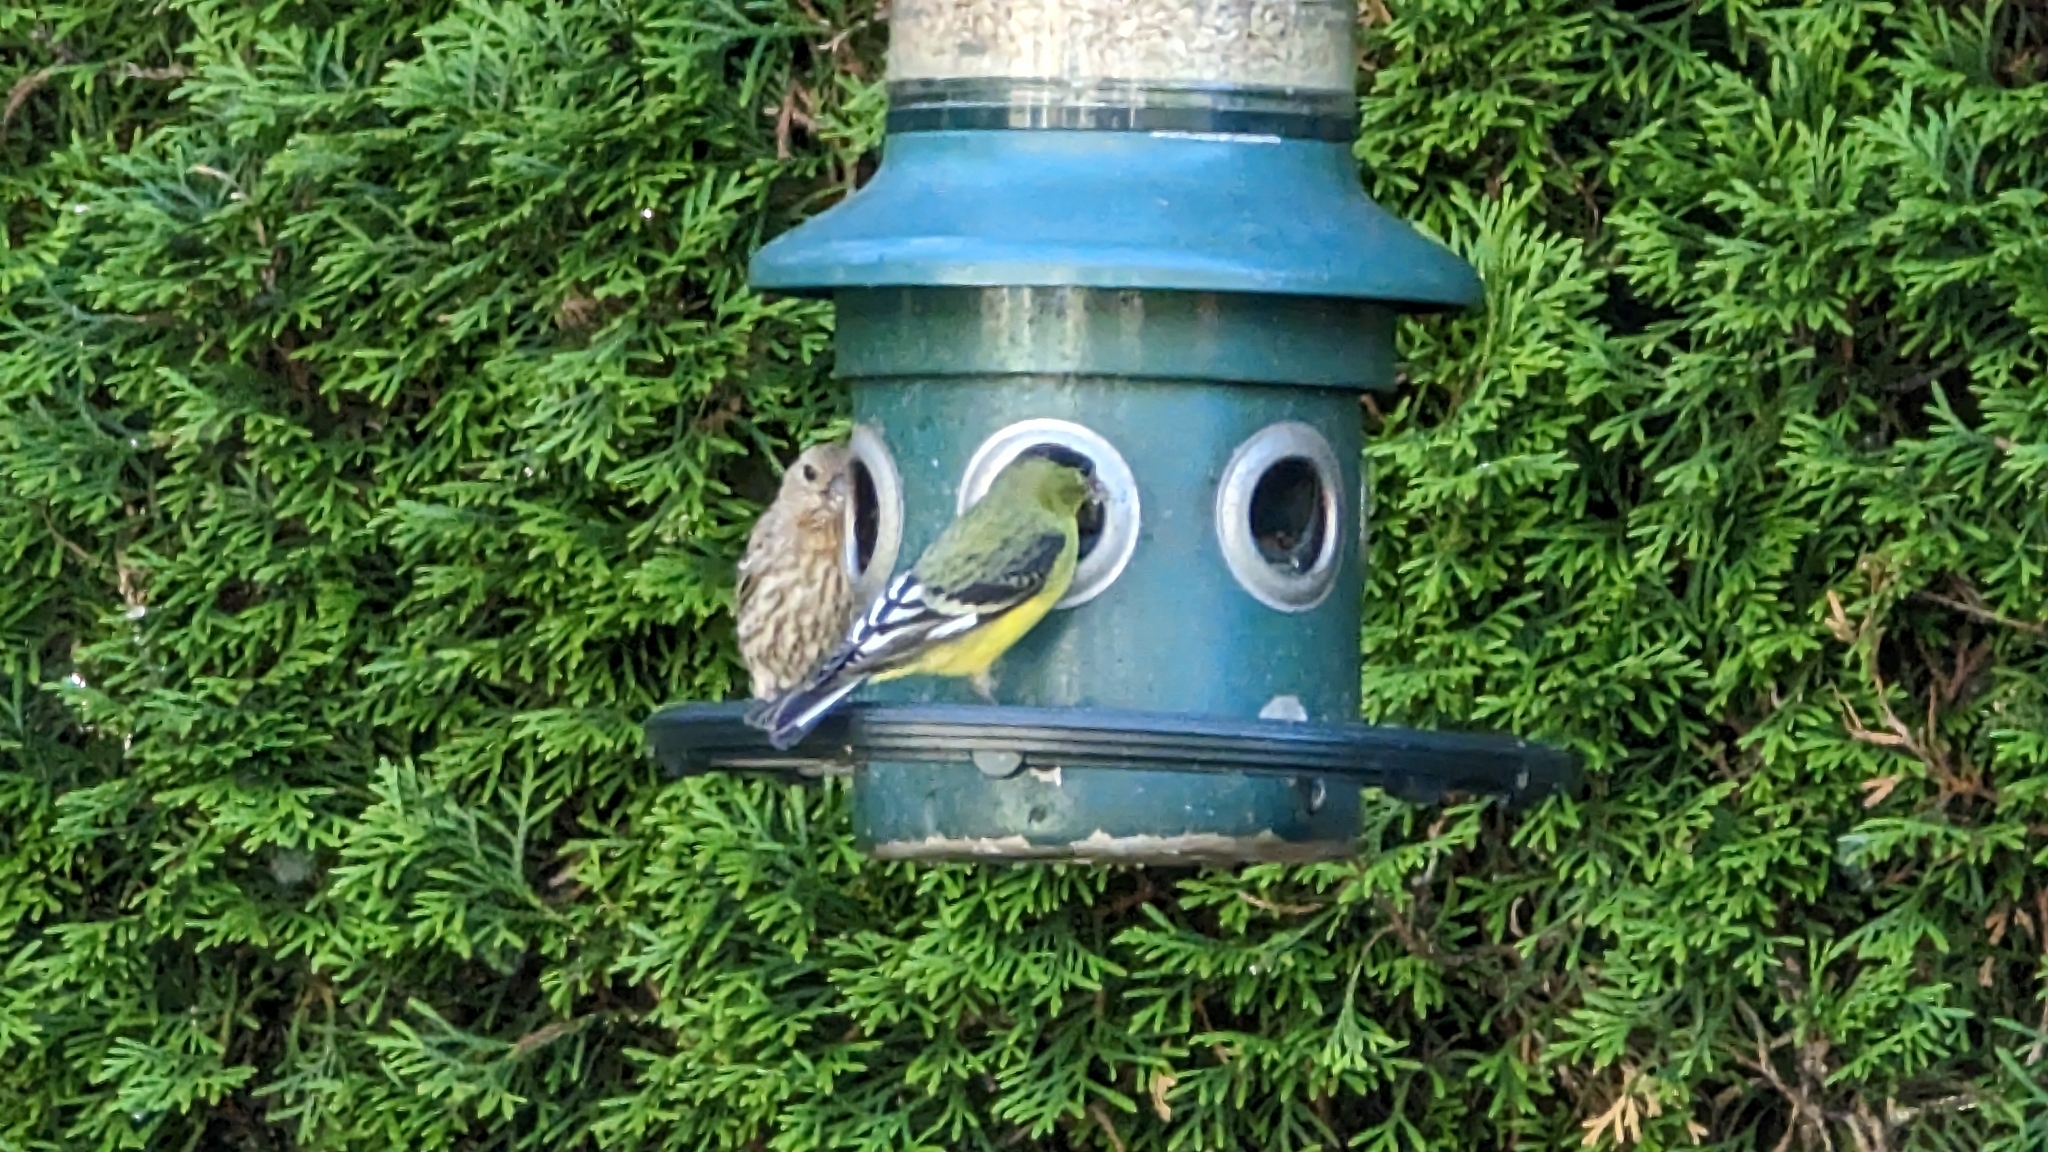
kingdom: Animalia
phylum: Chordata
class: Aves
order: Passeriformes
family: Fringillidae
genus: Spinus
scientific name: Spinus psaltria
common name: Lesser goldfinch
